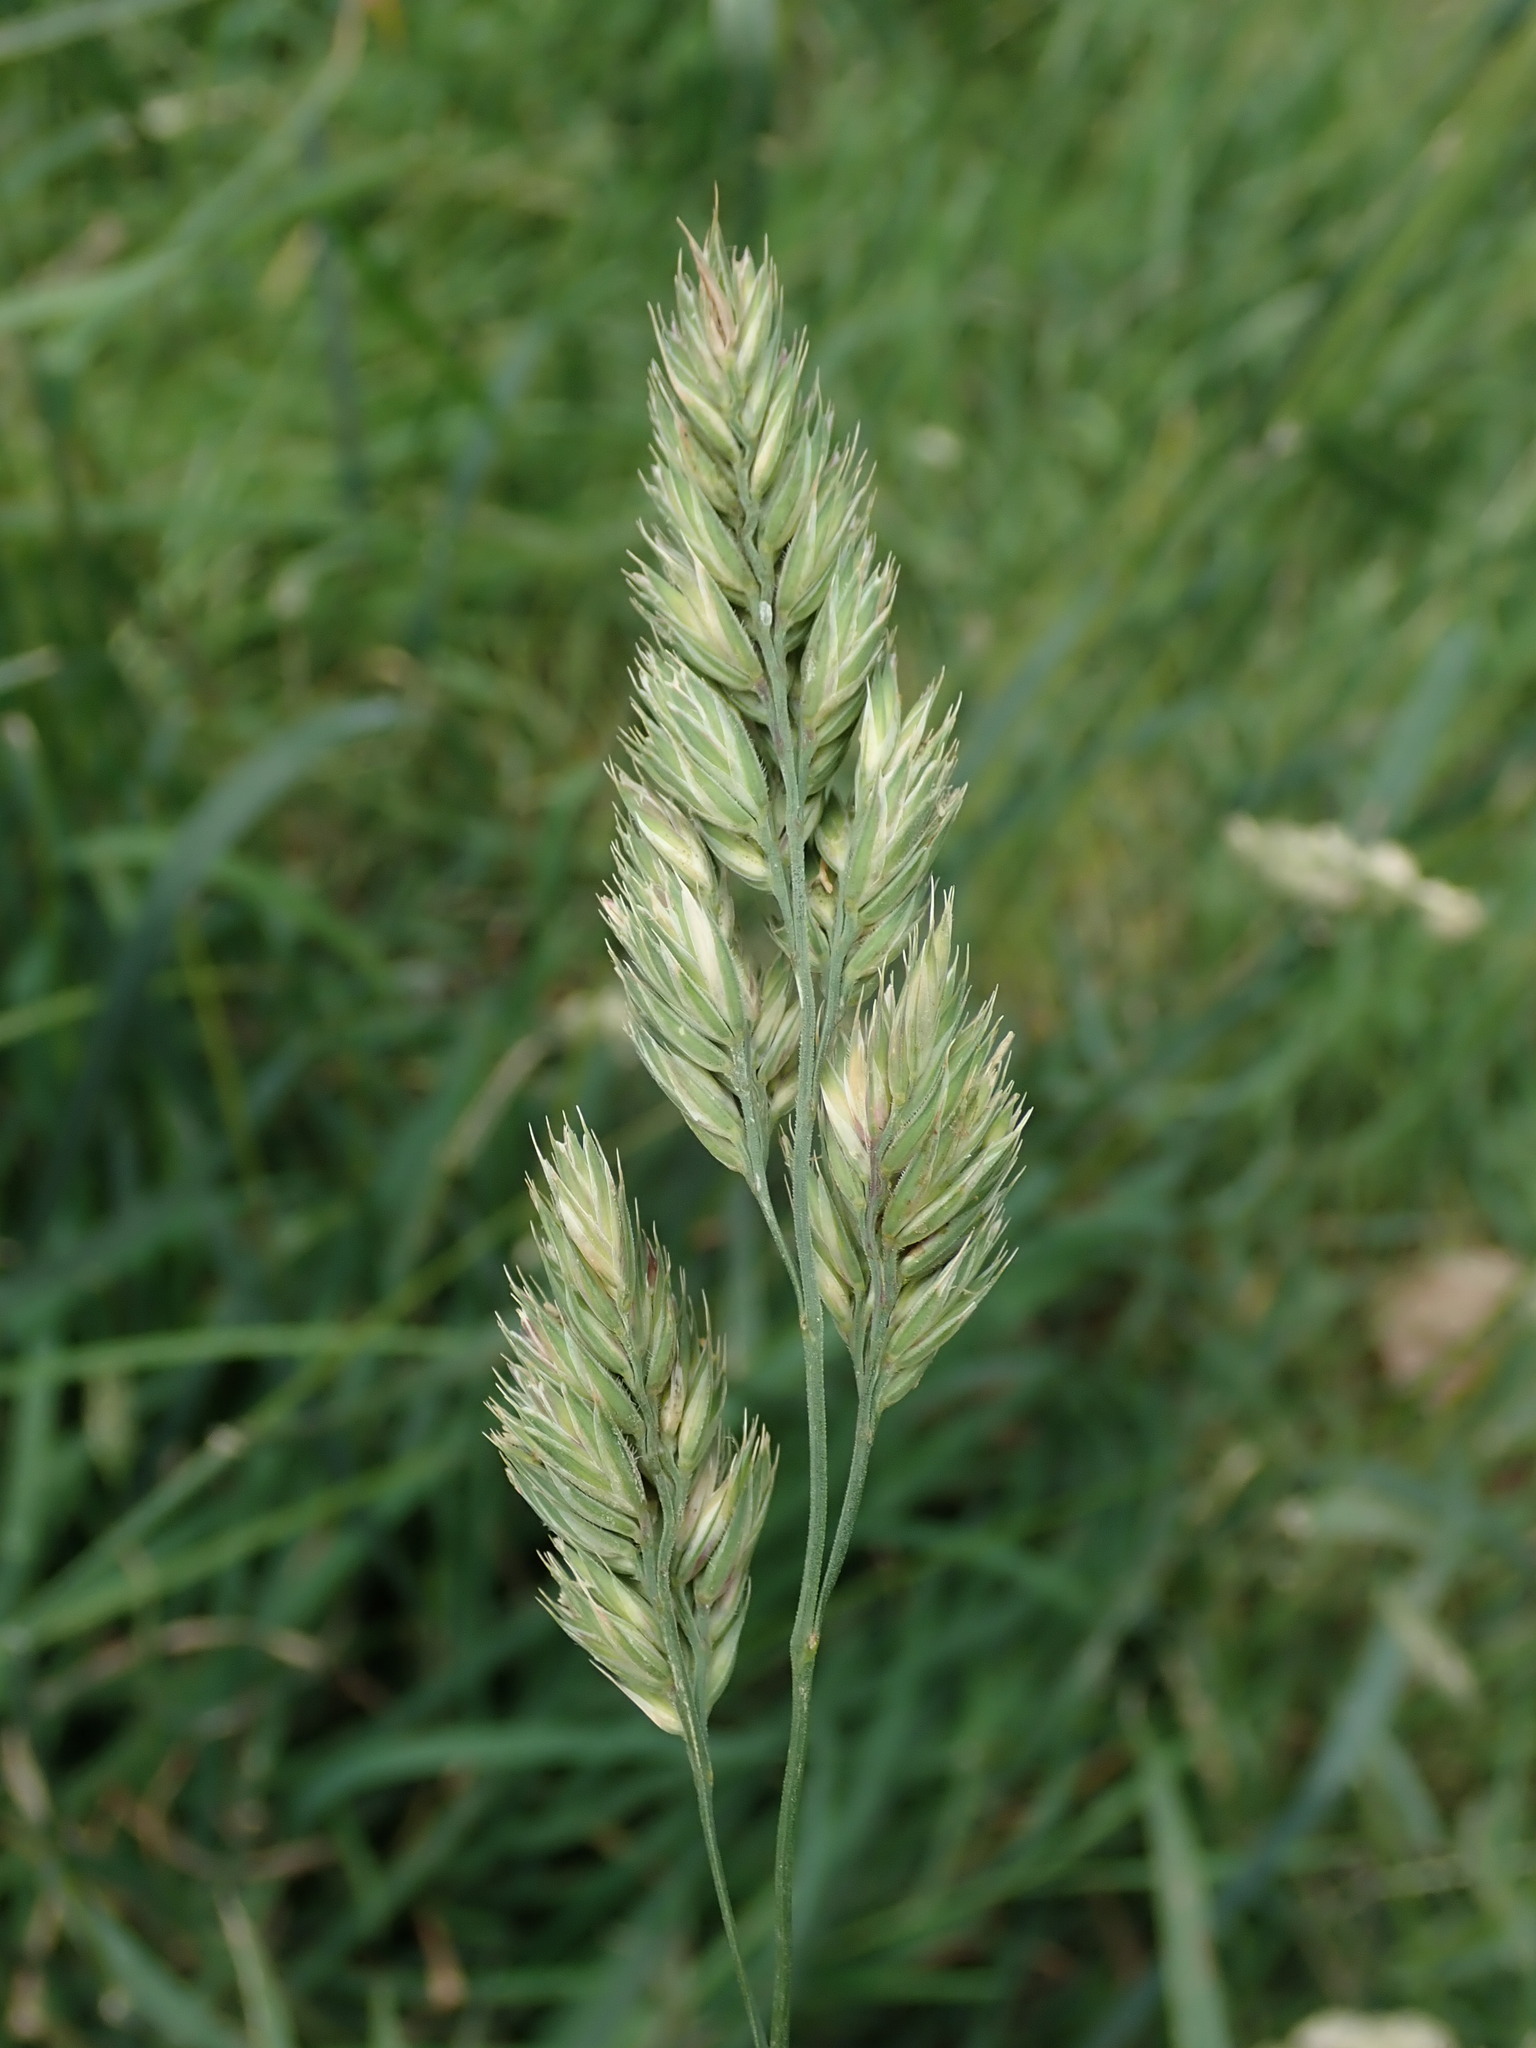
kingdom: Plantae
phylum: Tracheophyta
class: Liliopsida
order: Poales
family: Poaceae
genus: Dactylis
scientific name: Dactylis glomerata
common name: Orchardgrass
